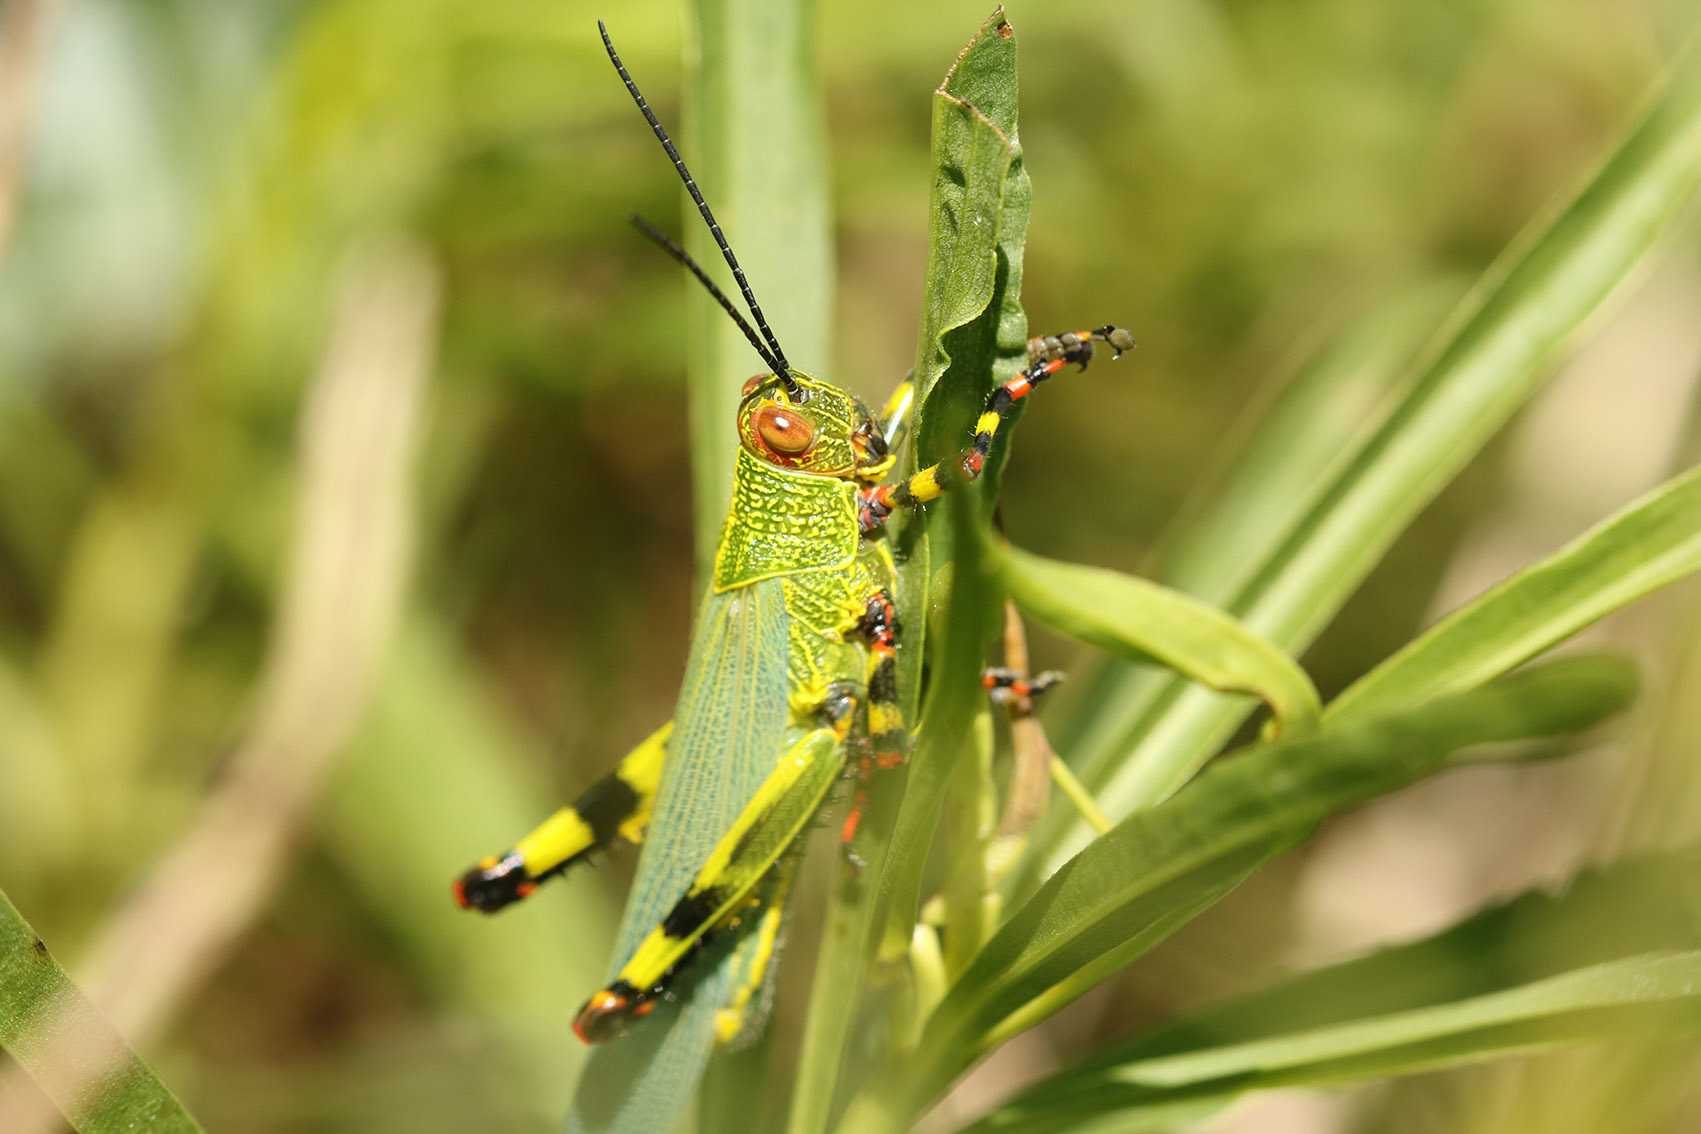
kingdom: Animalia
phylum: Arthropoda
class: Insecta
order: Orthoptera
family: Romaleidae
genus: Zoniopoda
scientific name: Zoniopoda tarsata
